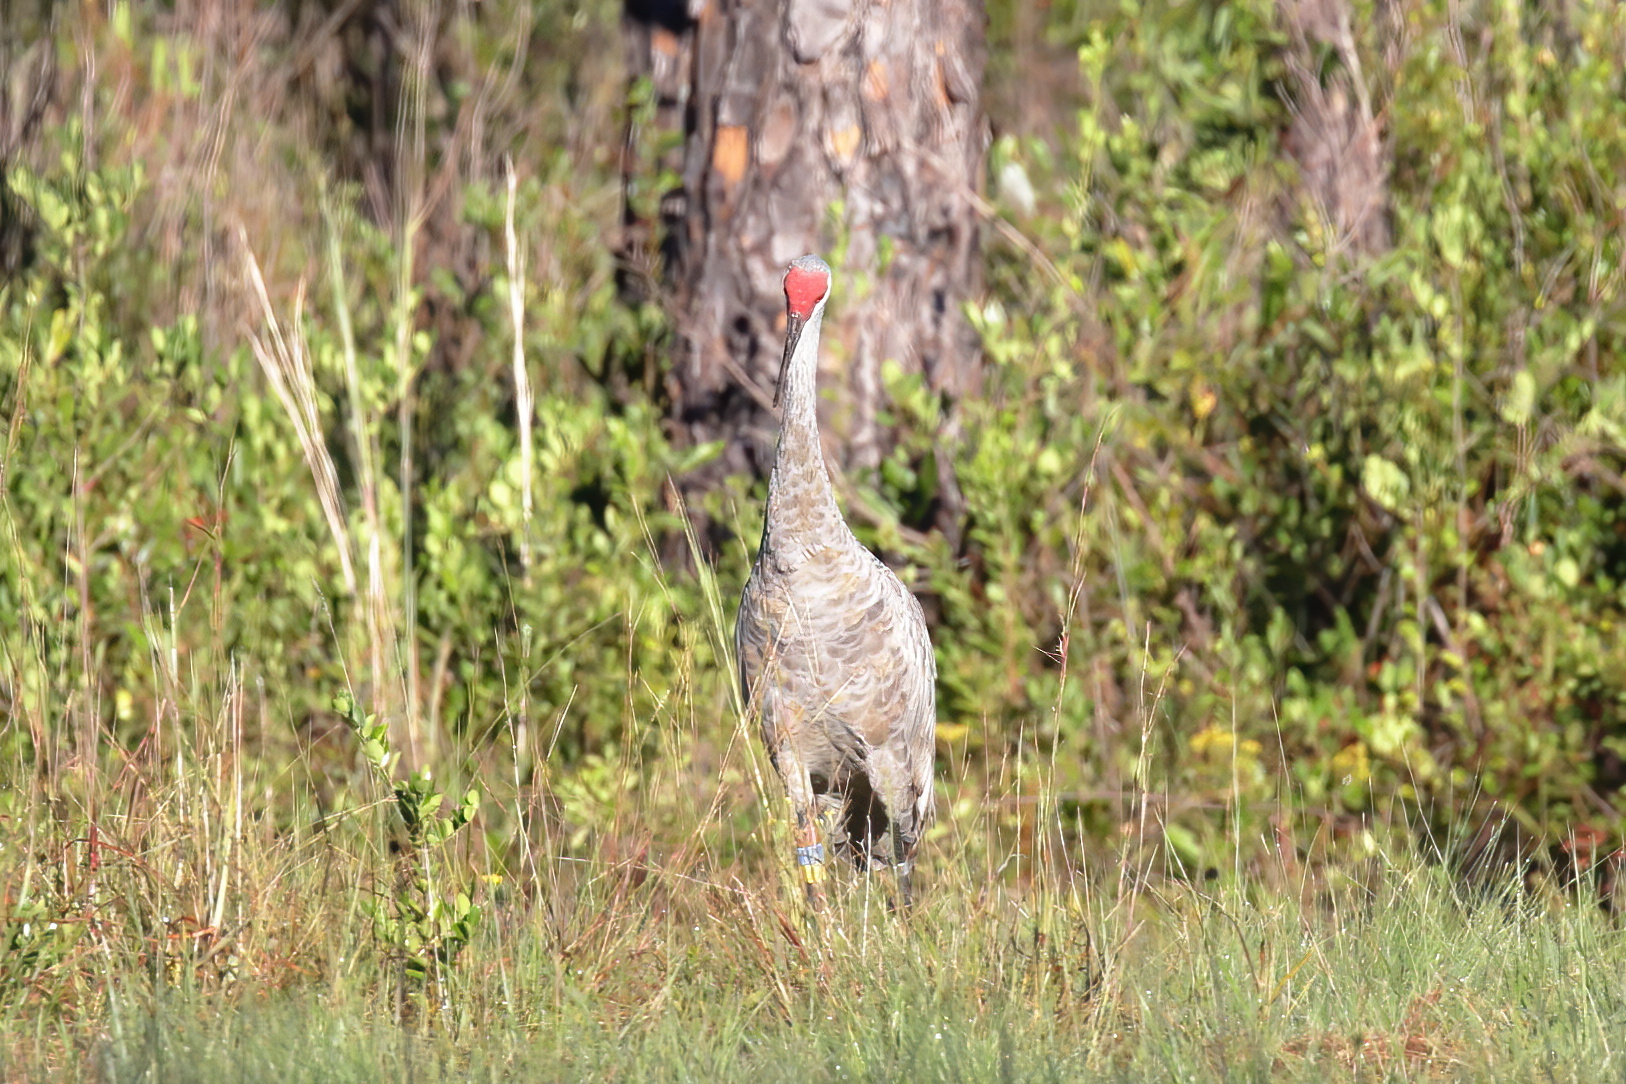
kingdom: Animalia
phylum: Chordata
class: Aves
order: Gruiformes
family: Gruidae
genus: Grus
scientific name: Grus canadensis
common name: Sandhill crane
